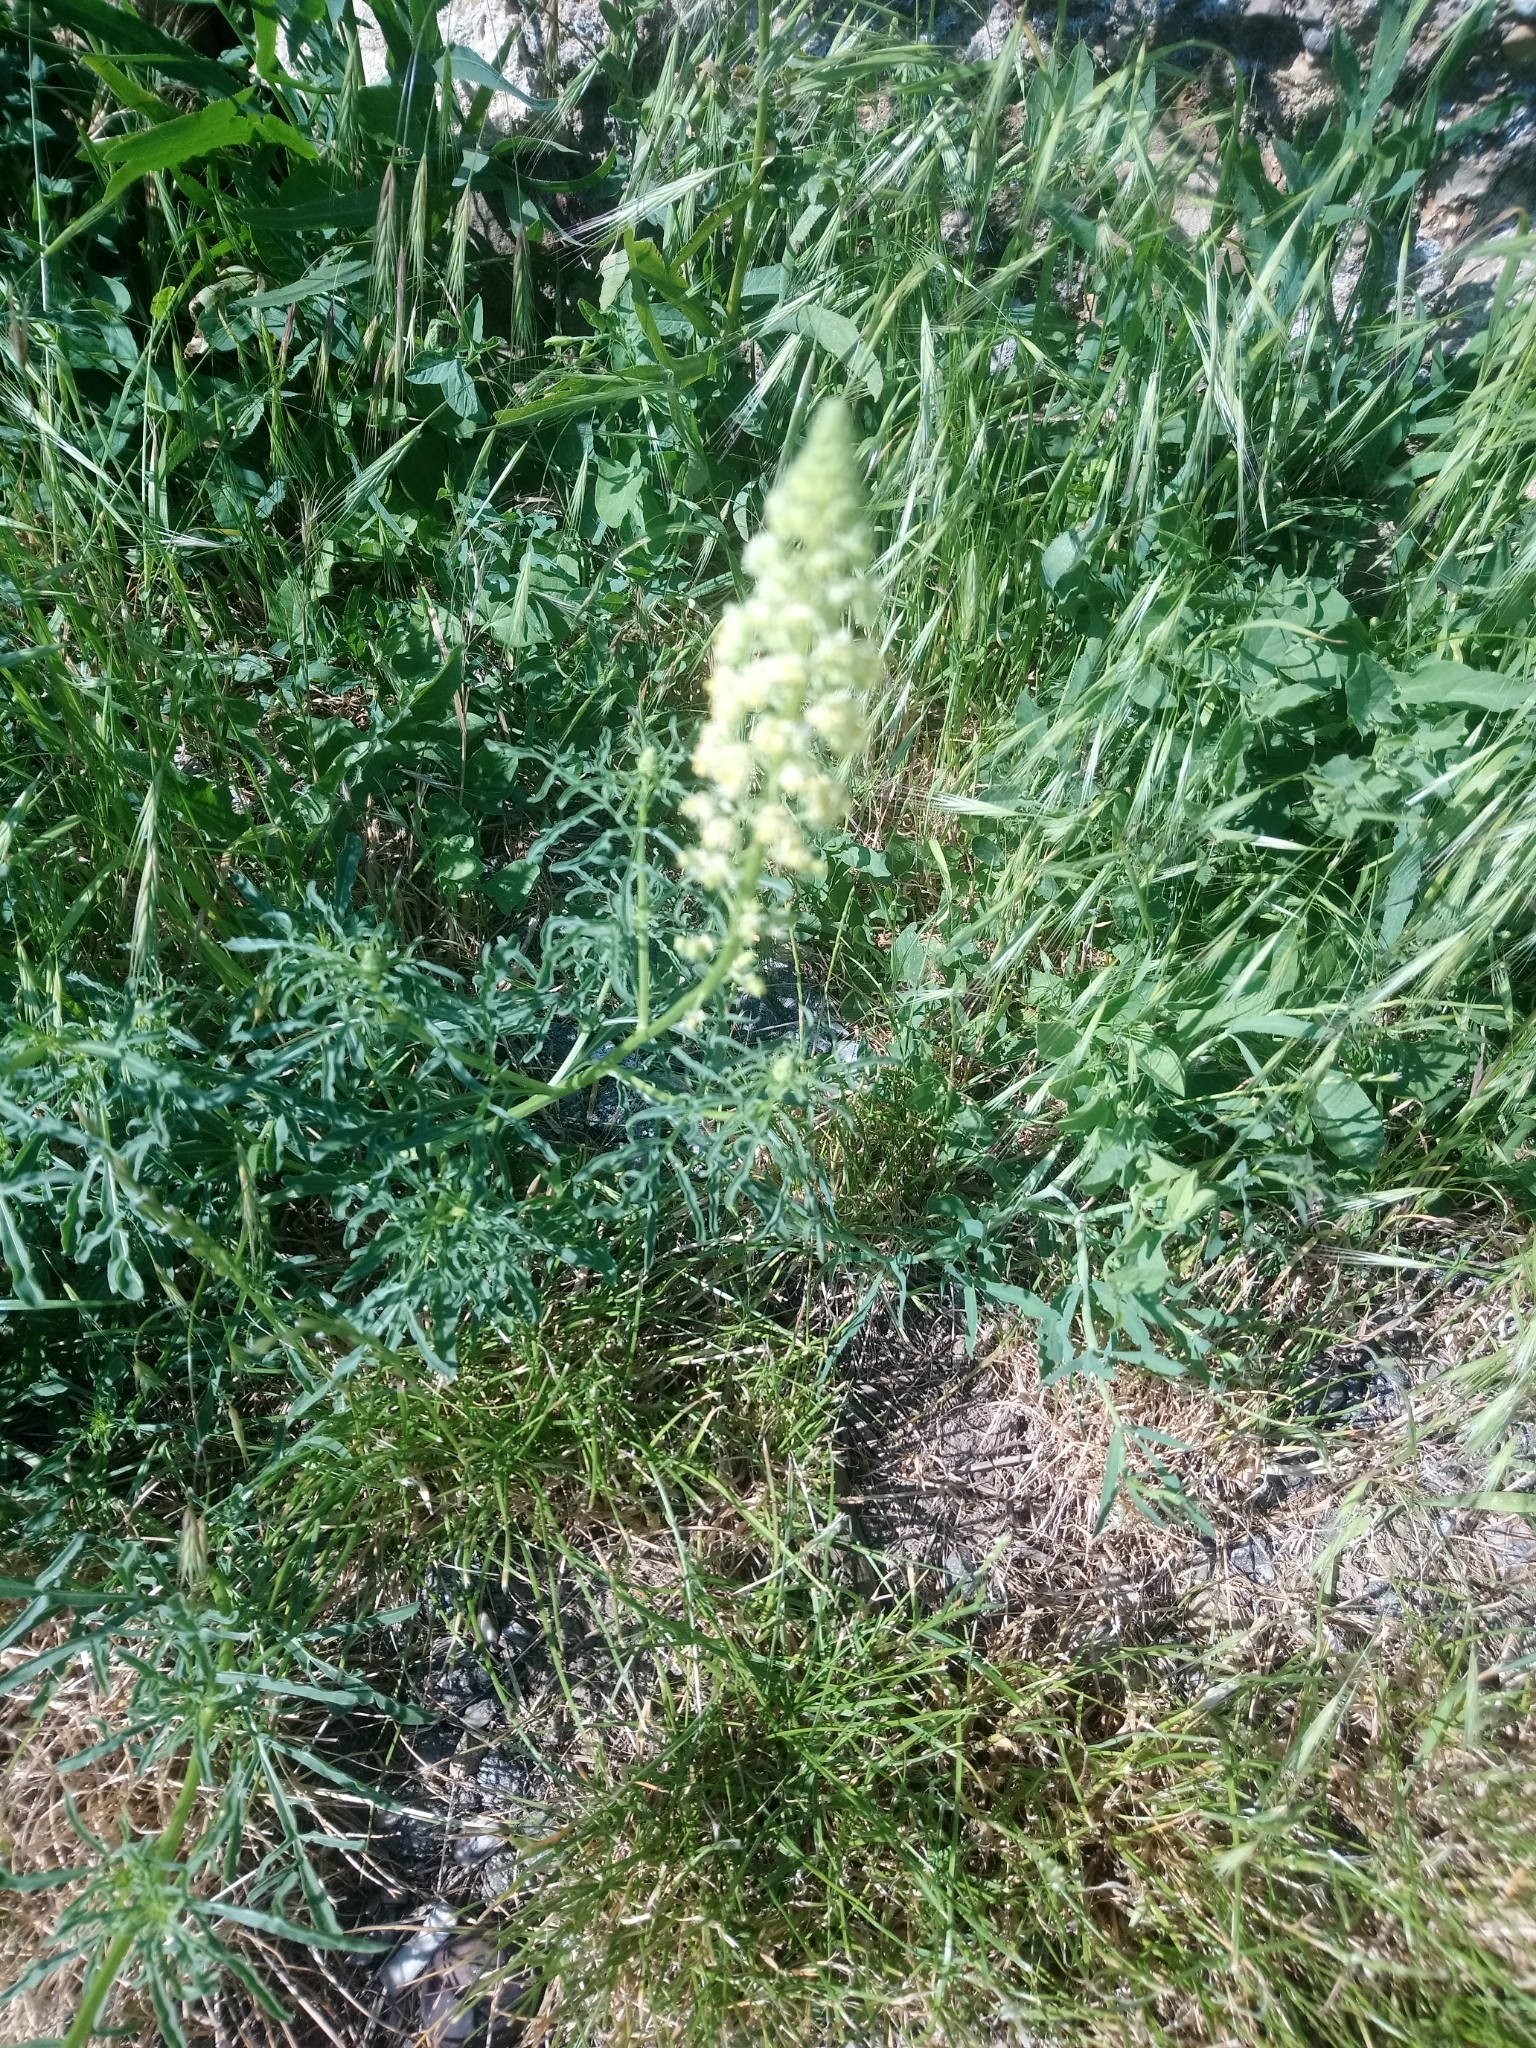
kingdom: Plantae
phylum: Tracheophyta
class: Magnoliopsida
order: Brassicales
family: Resedaceae
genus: Reseda
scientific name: Reseda lutea
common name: Wild mignonette
